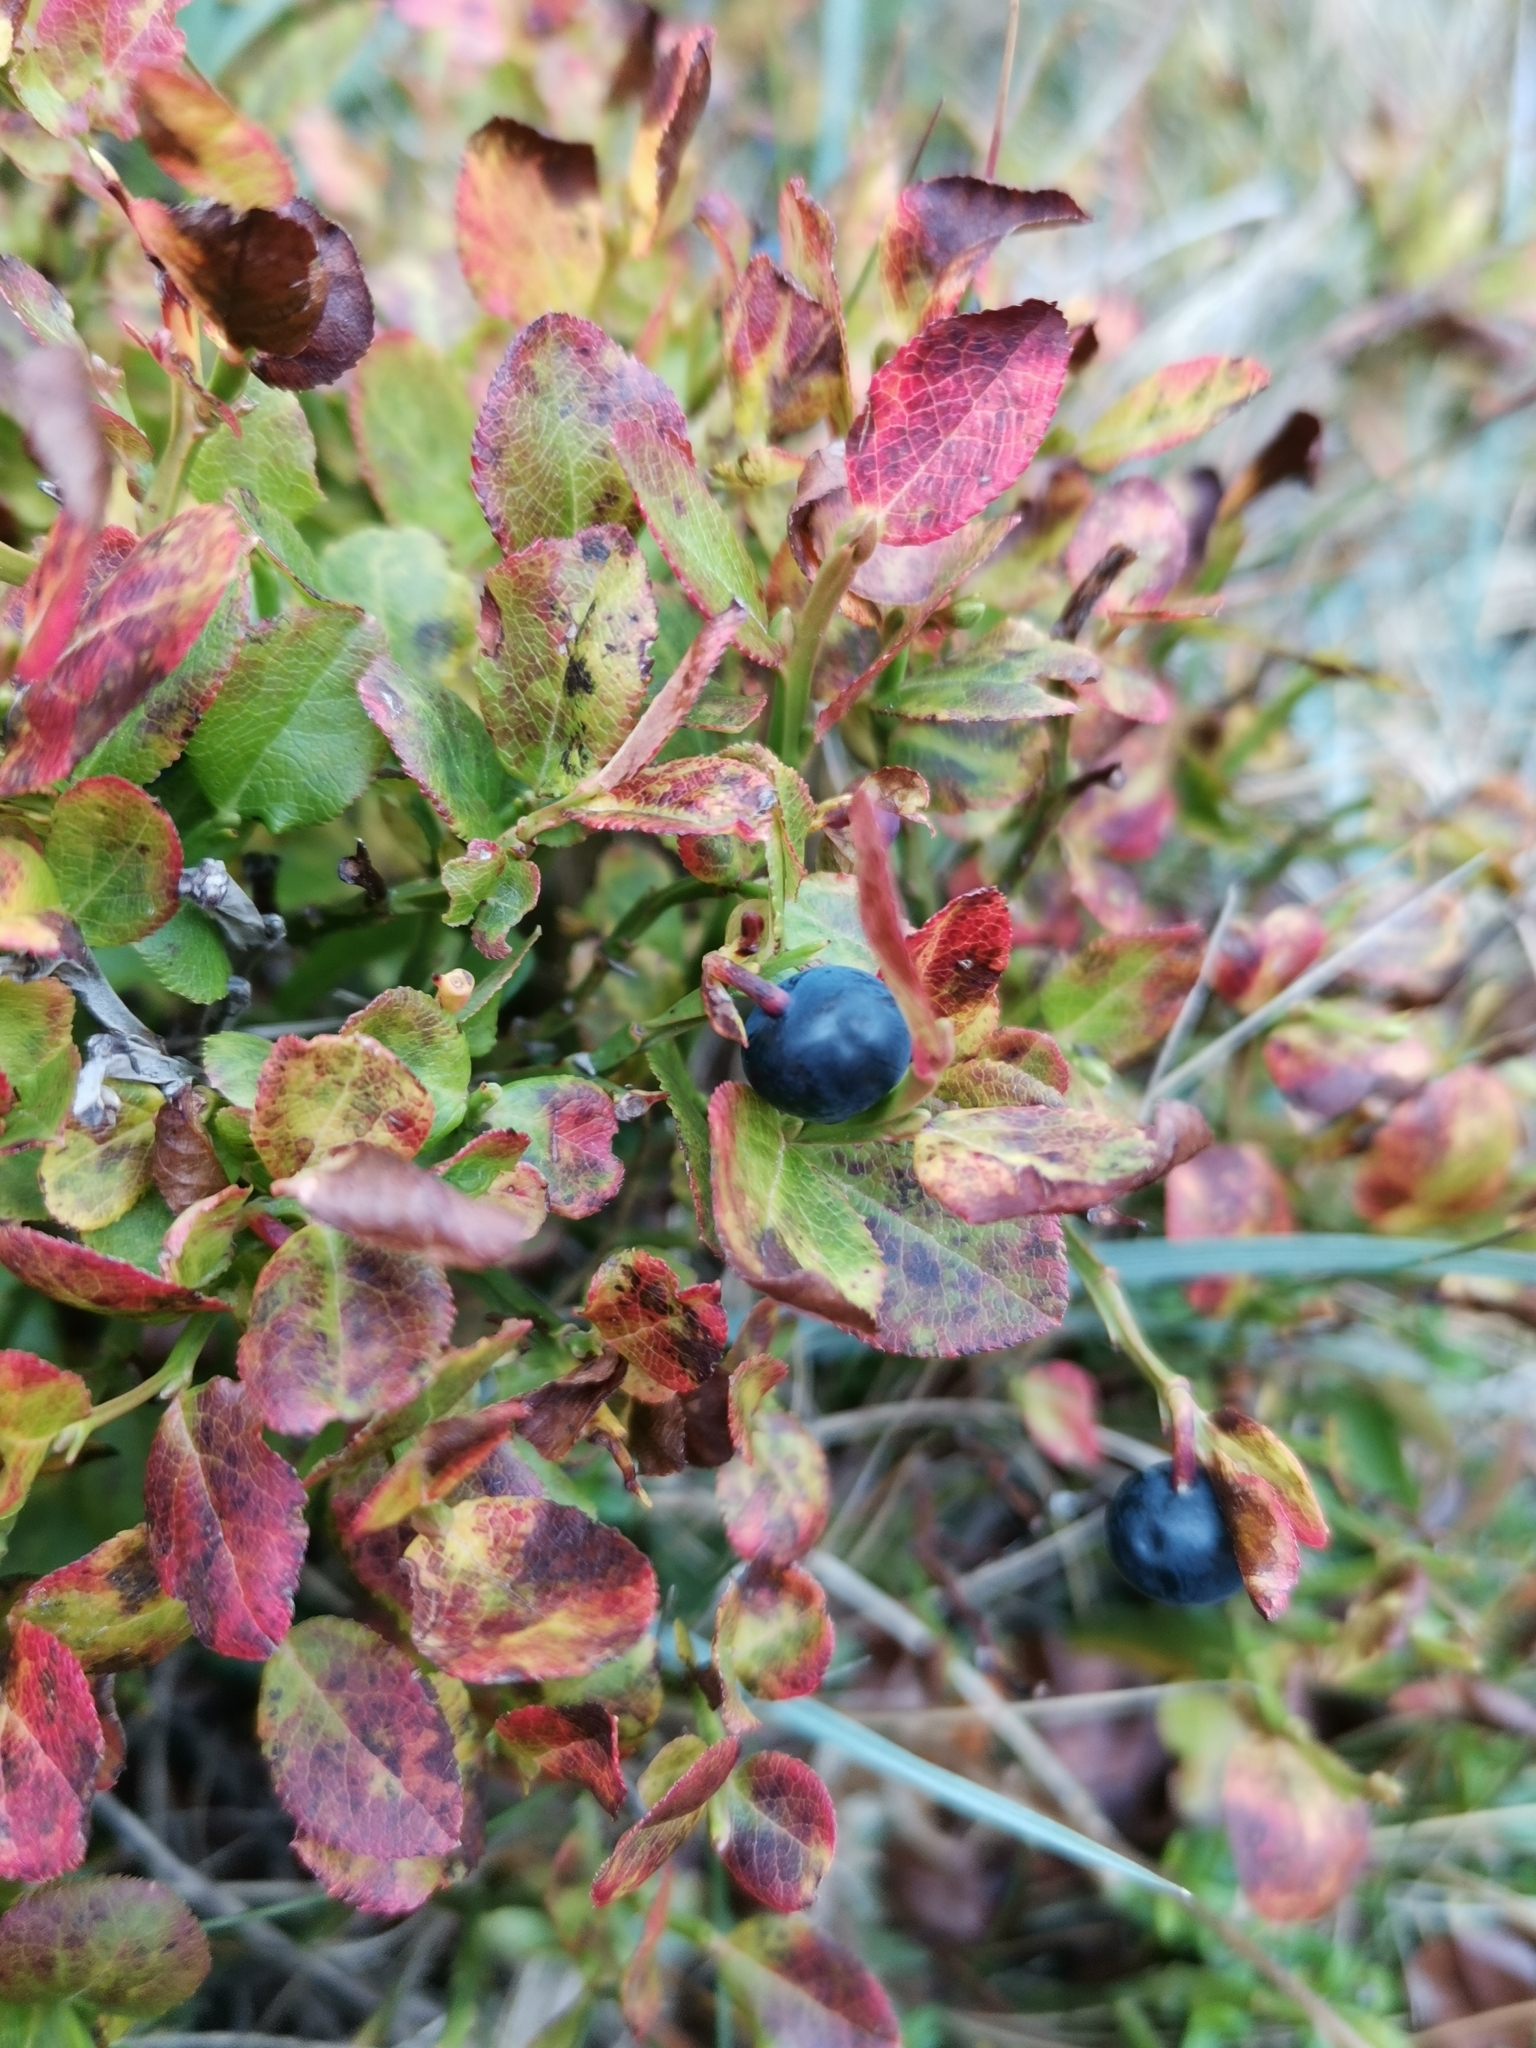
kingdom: Plantae
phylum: Tracheophyta
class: Magnoliopsida
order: Ericales
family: Ericaceae
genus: Vaccinium
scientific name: Vaccinium myrtillus
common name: Bilberry
